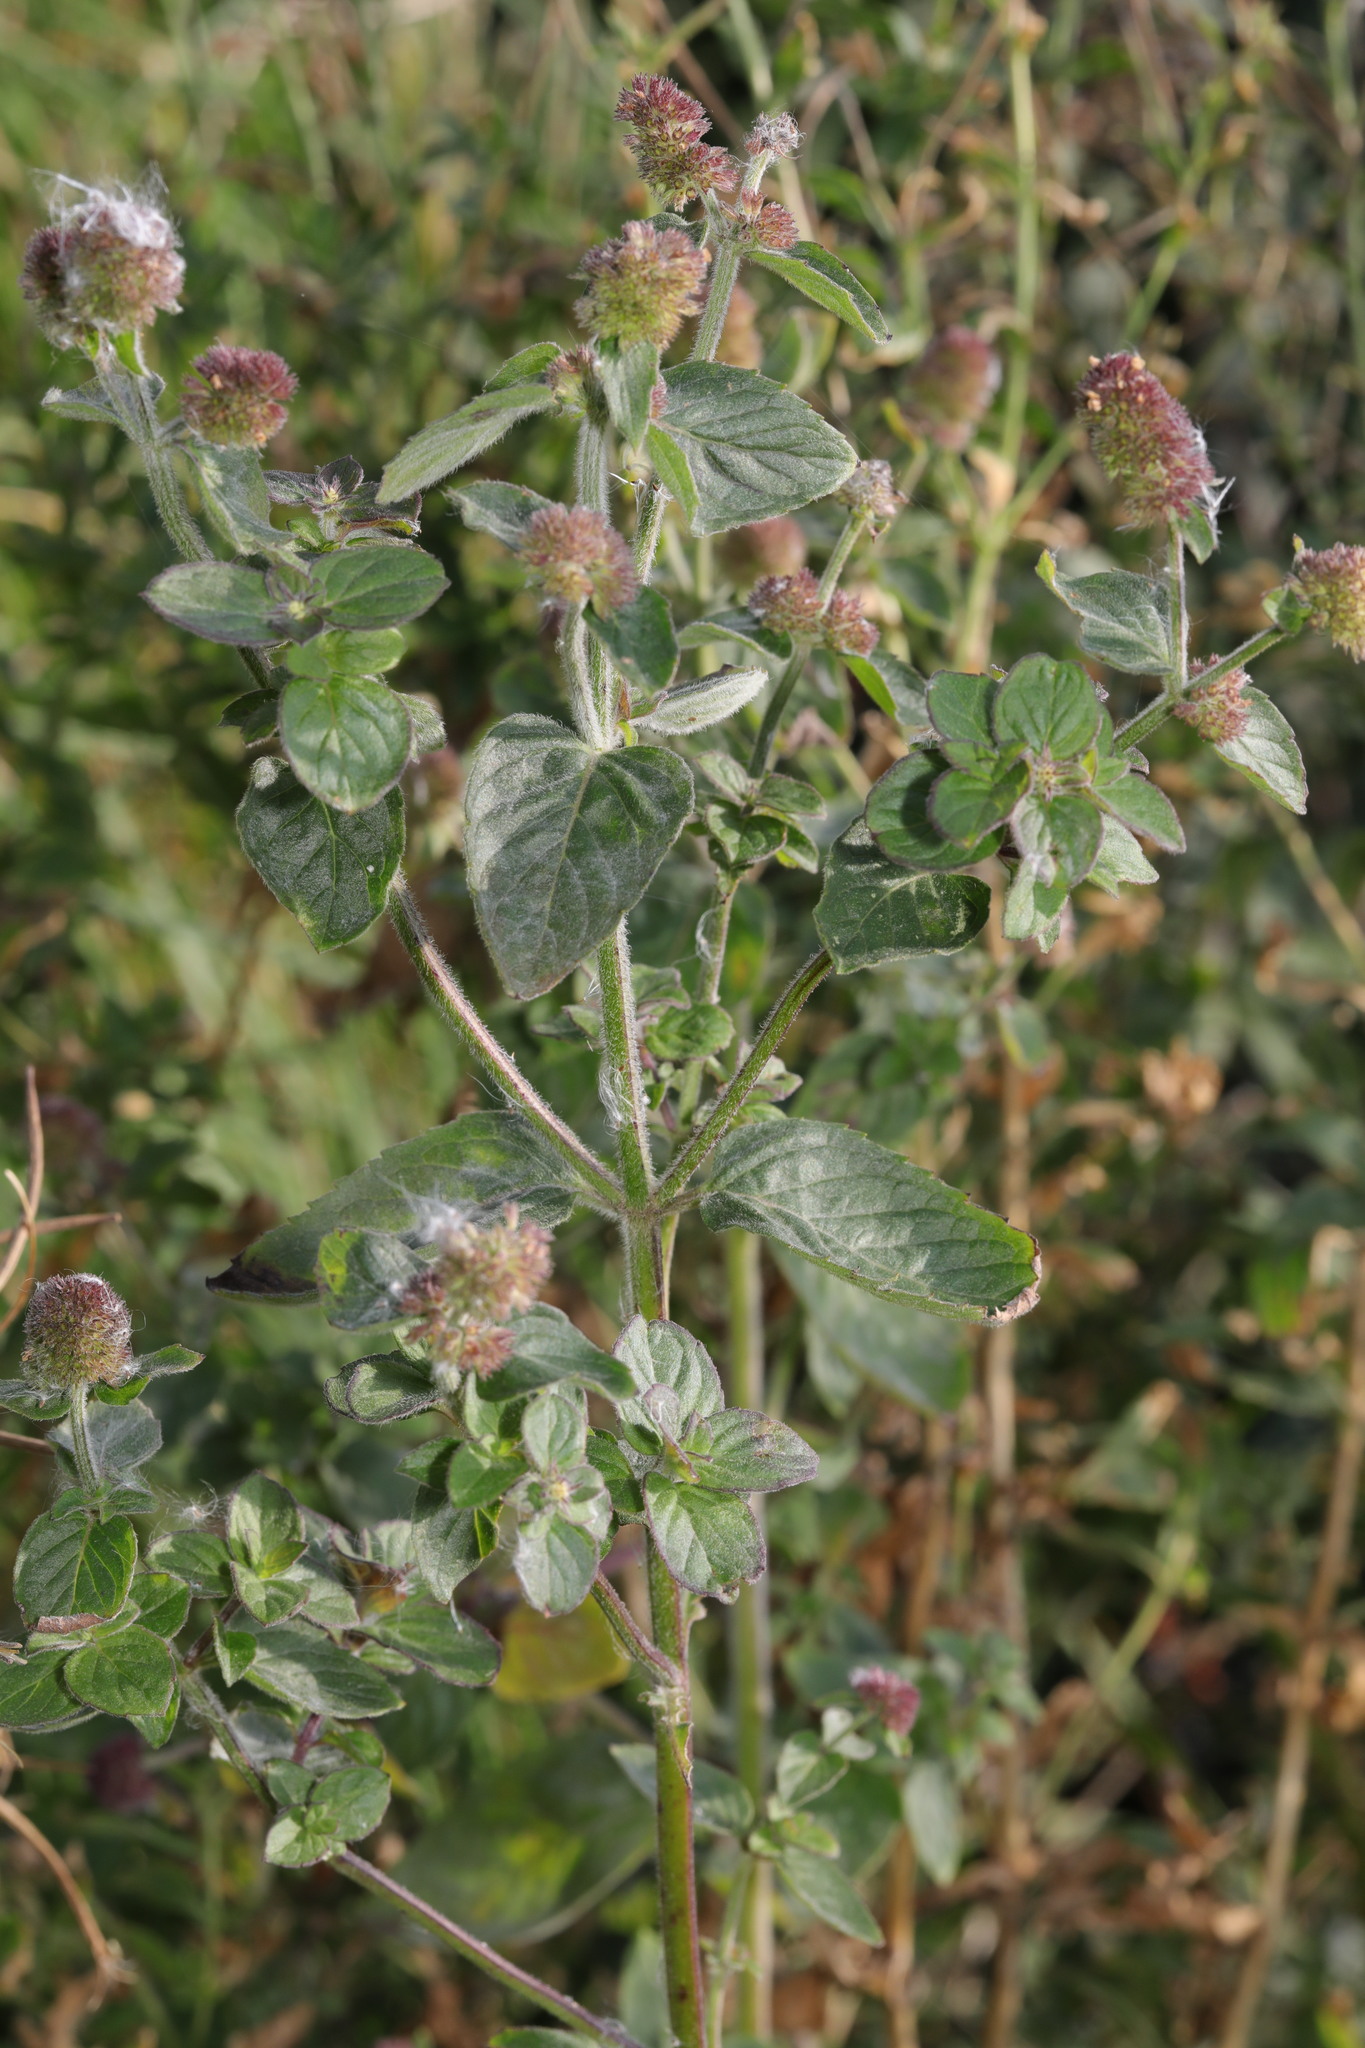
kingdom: Plantae
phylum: Tracheophyta
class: Magnoliopsida
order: Lamiales
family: Lamiaceae
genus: Mentha
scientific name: Mentha aquatica
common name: Water mint
